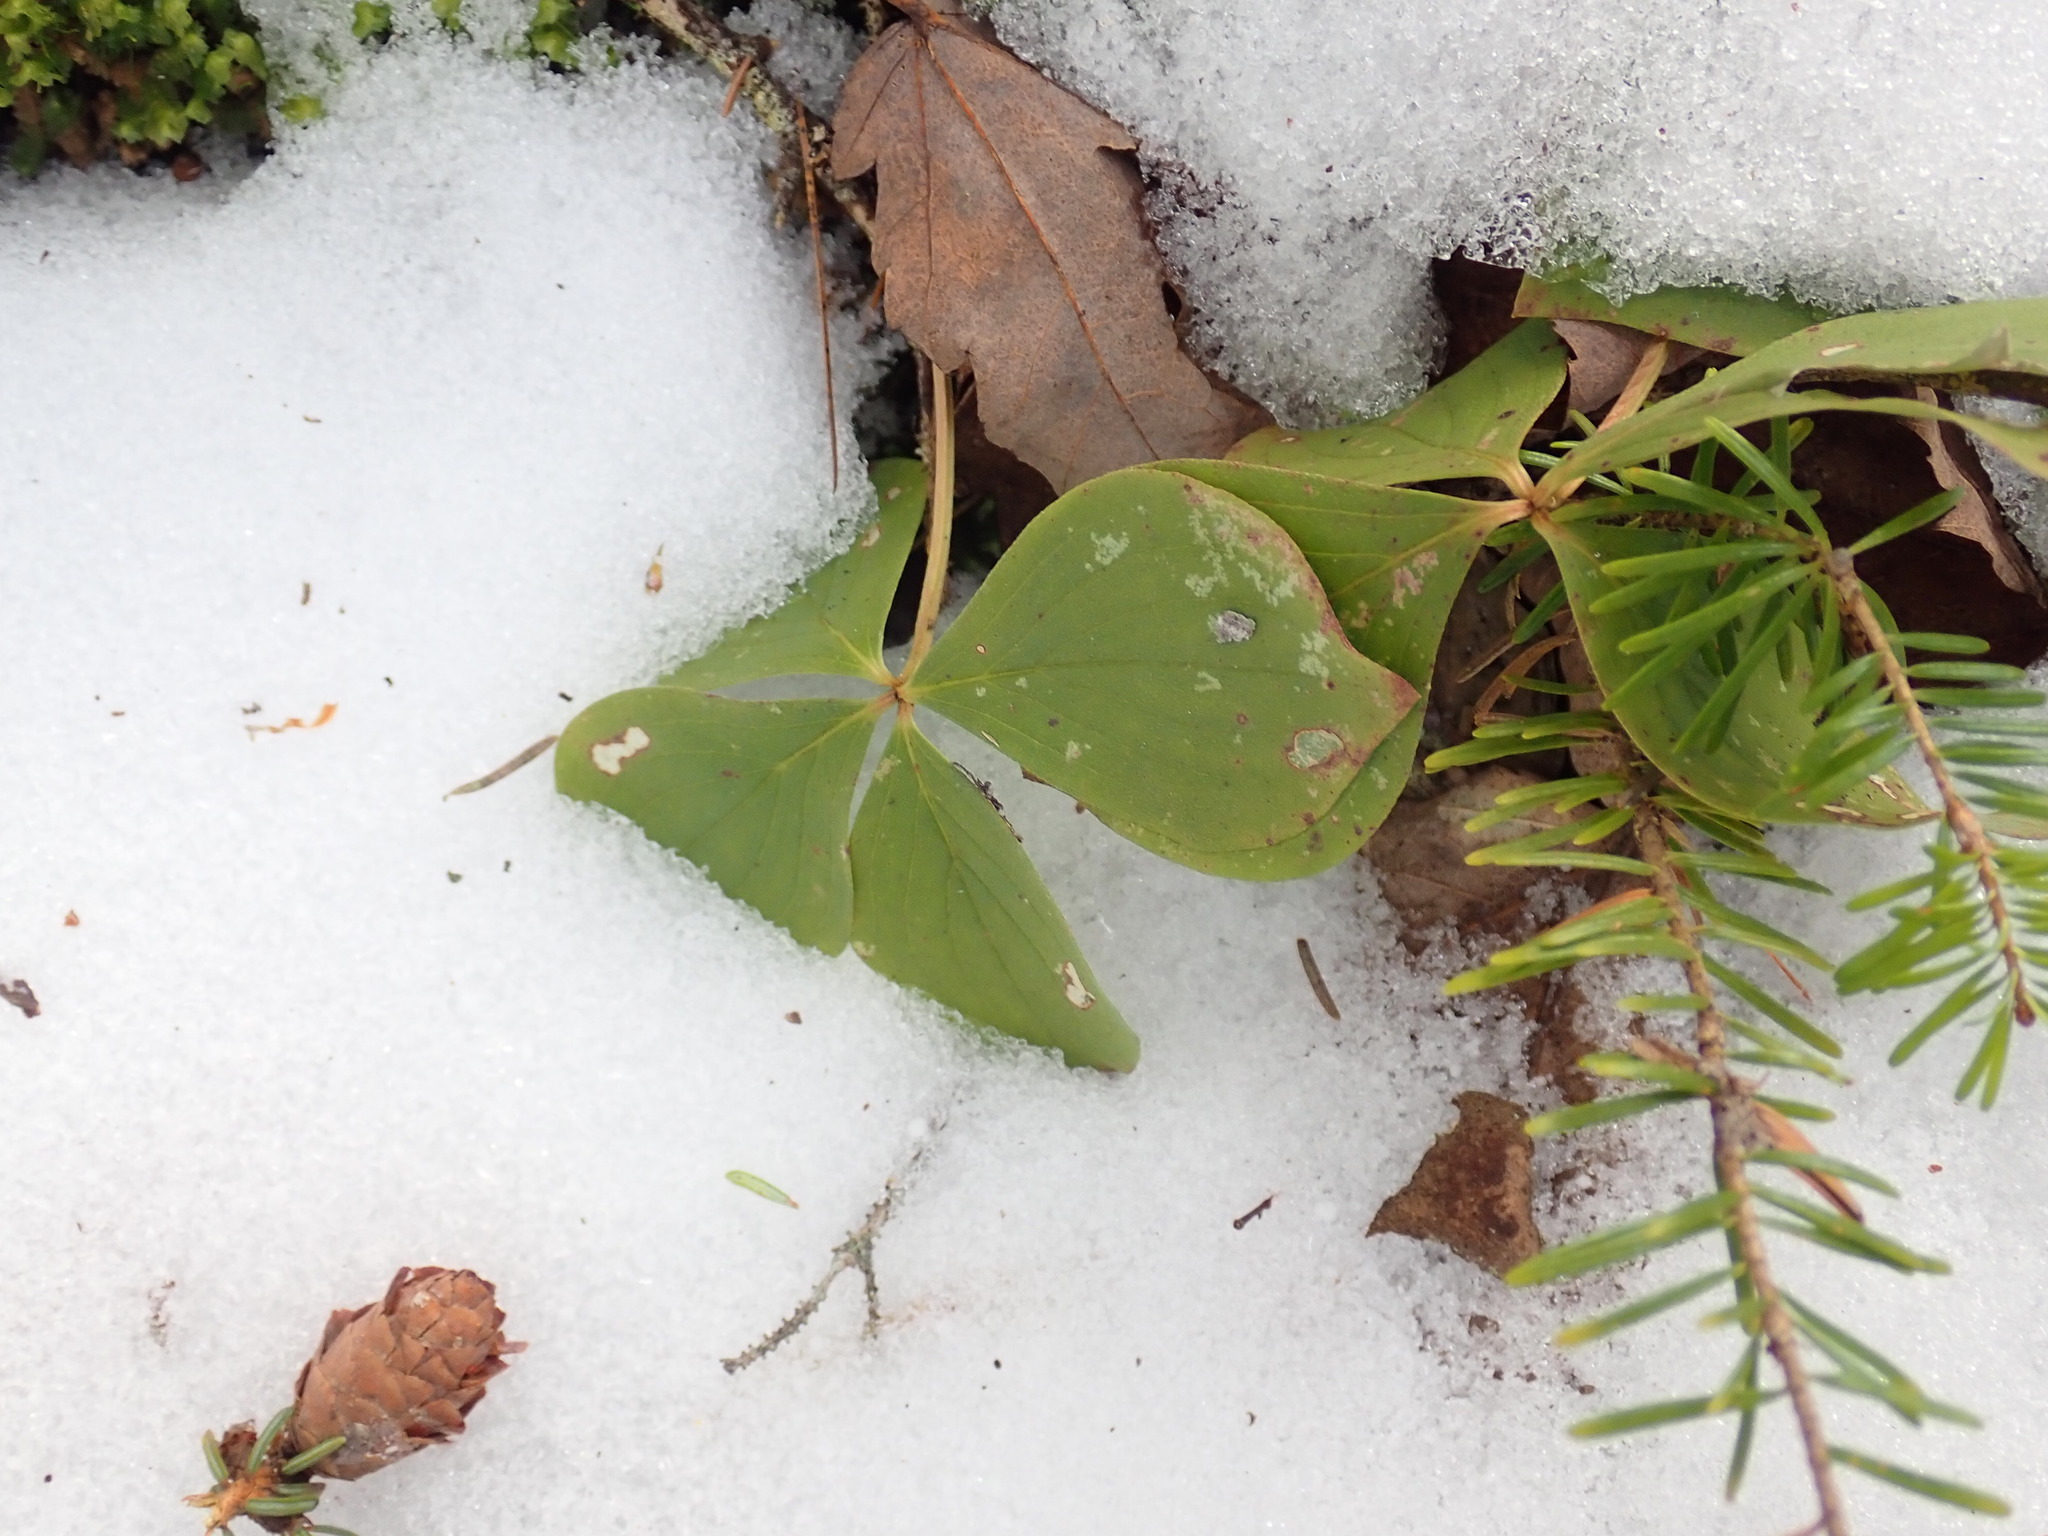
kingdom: Plantae
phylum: Tracheophyta
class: Magnoliopsida
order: Cornales
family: Cornaceae
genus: Cornus
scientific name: Cornus canadensis
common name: Creeping dogwood
